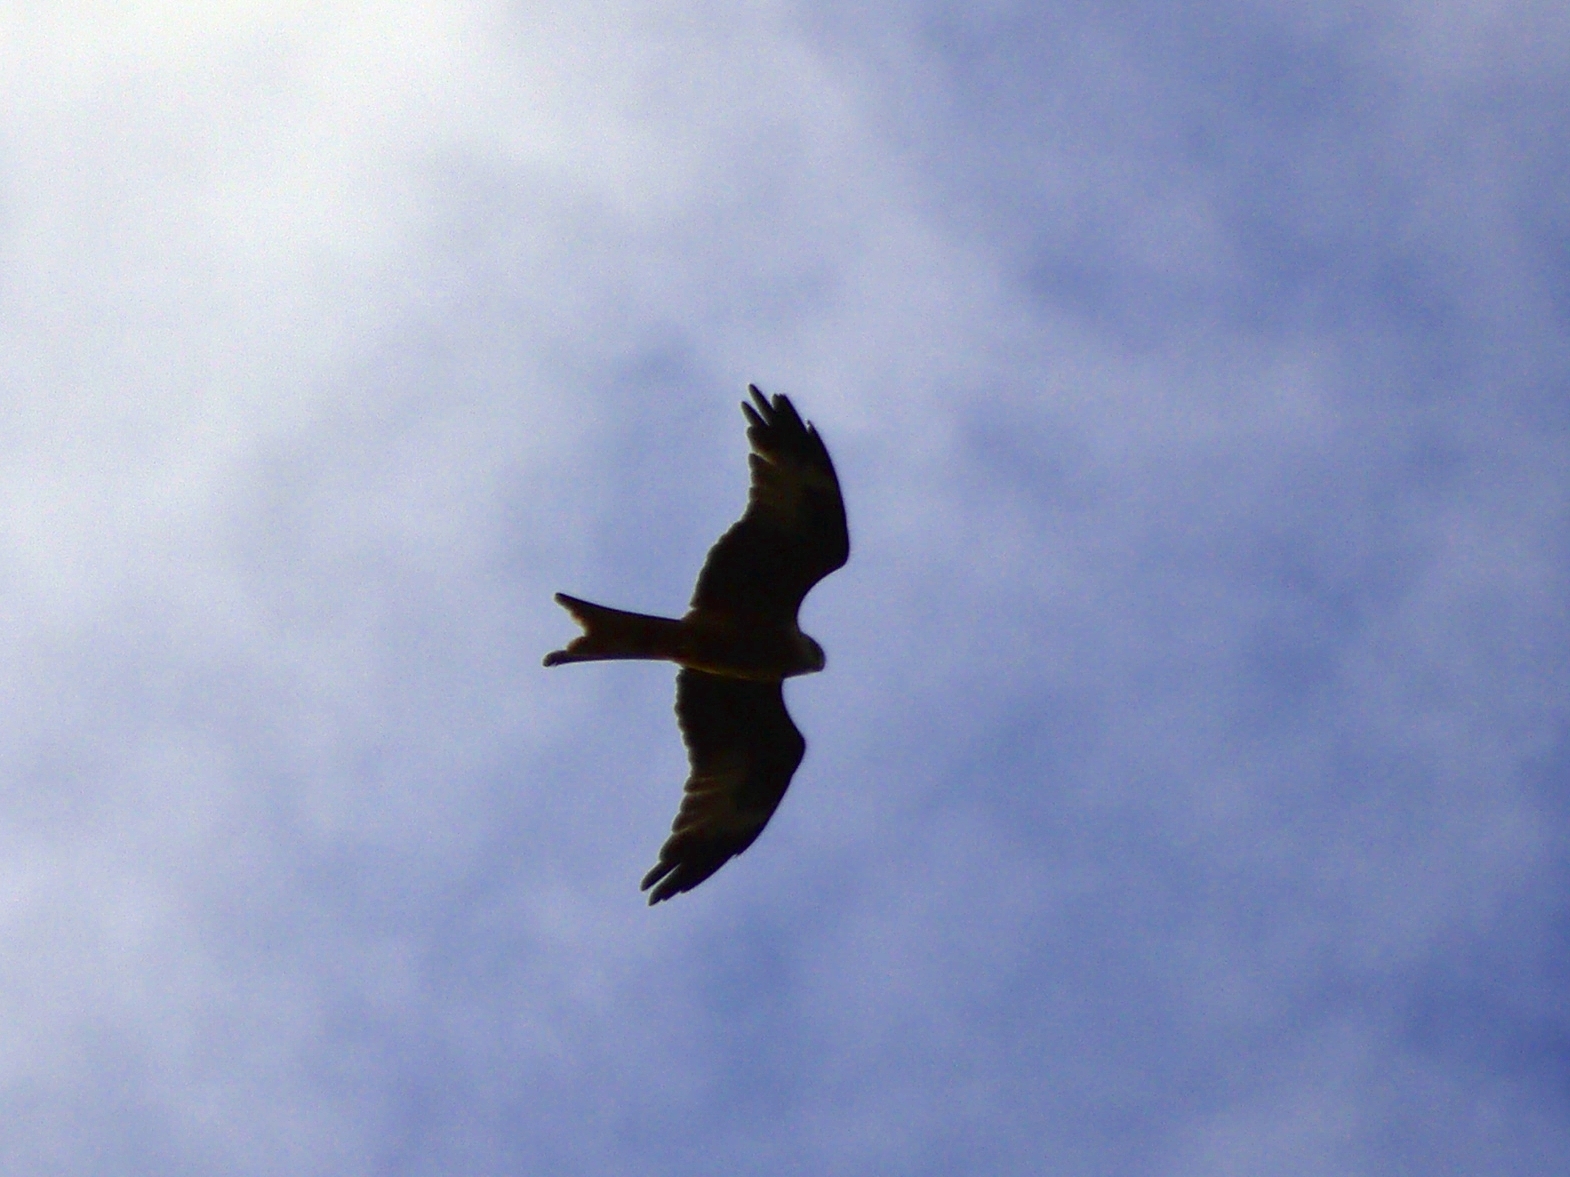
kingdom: Animalia
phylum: Chordata
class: Aves
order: Accipitriformes
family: Accipitridae
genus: Milvus
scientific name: Milvus milvus
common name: Red kite
